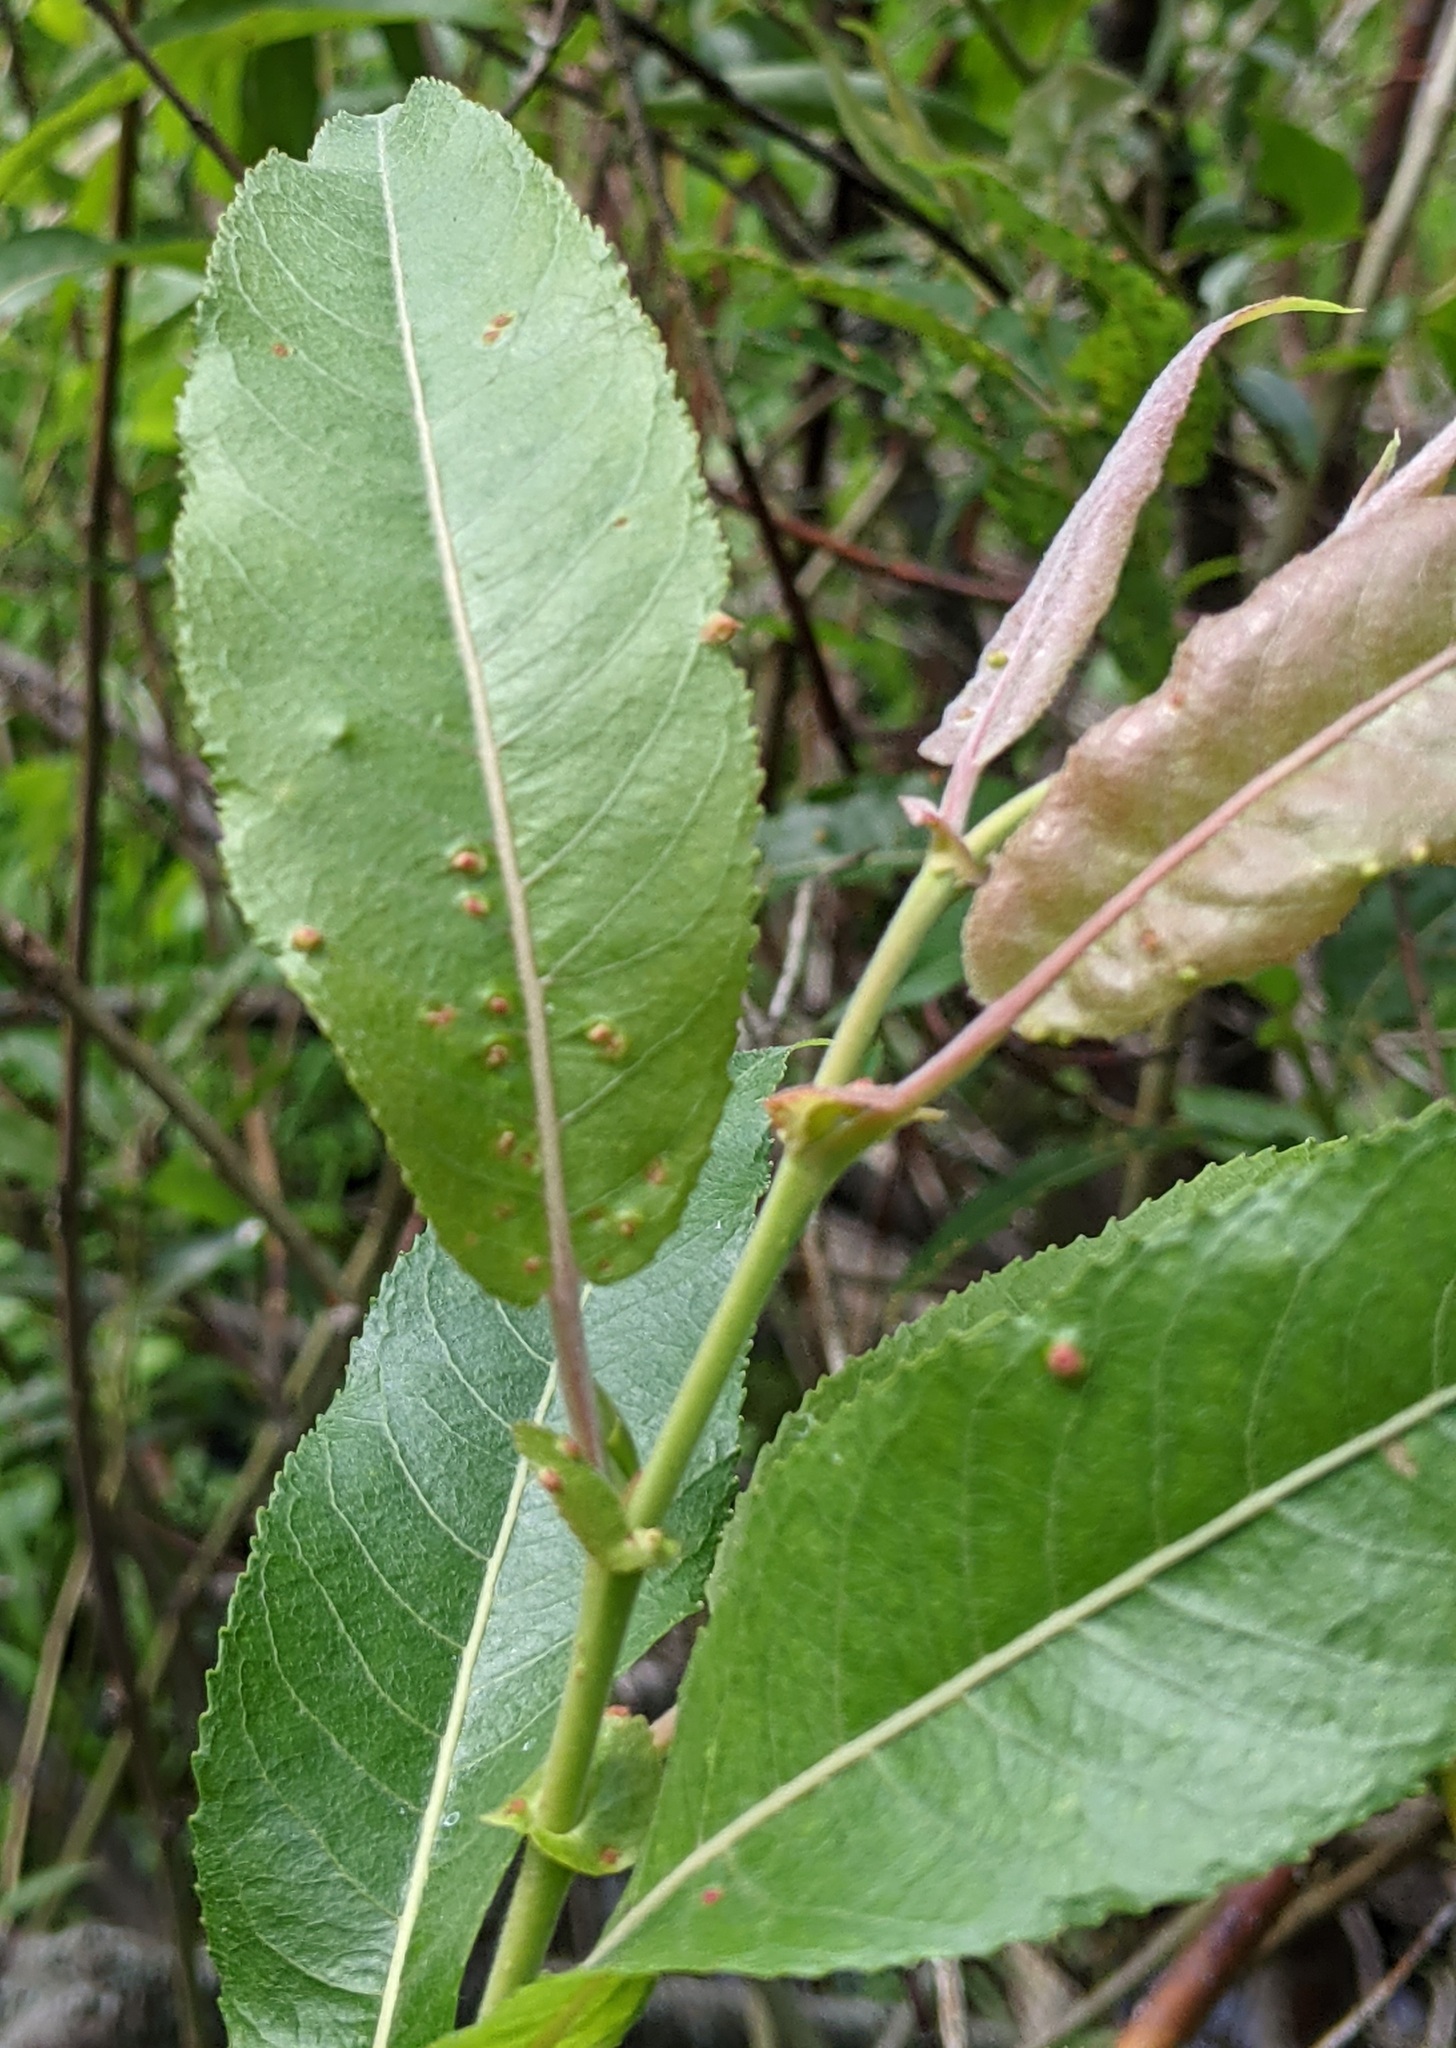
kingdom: Animalia
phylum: Arthropoda
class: Arachnida
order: Trombidiformes
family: Eriophyidae
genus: Aculus
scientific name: Aculus tetanothrix
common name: Willow bead gall mite
